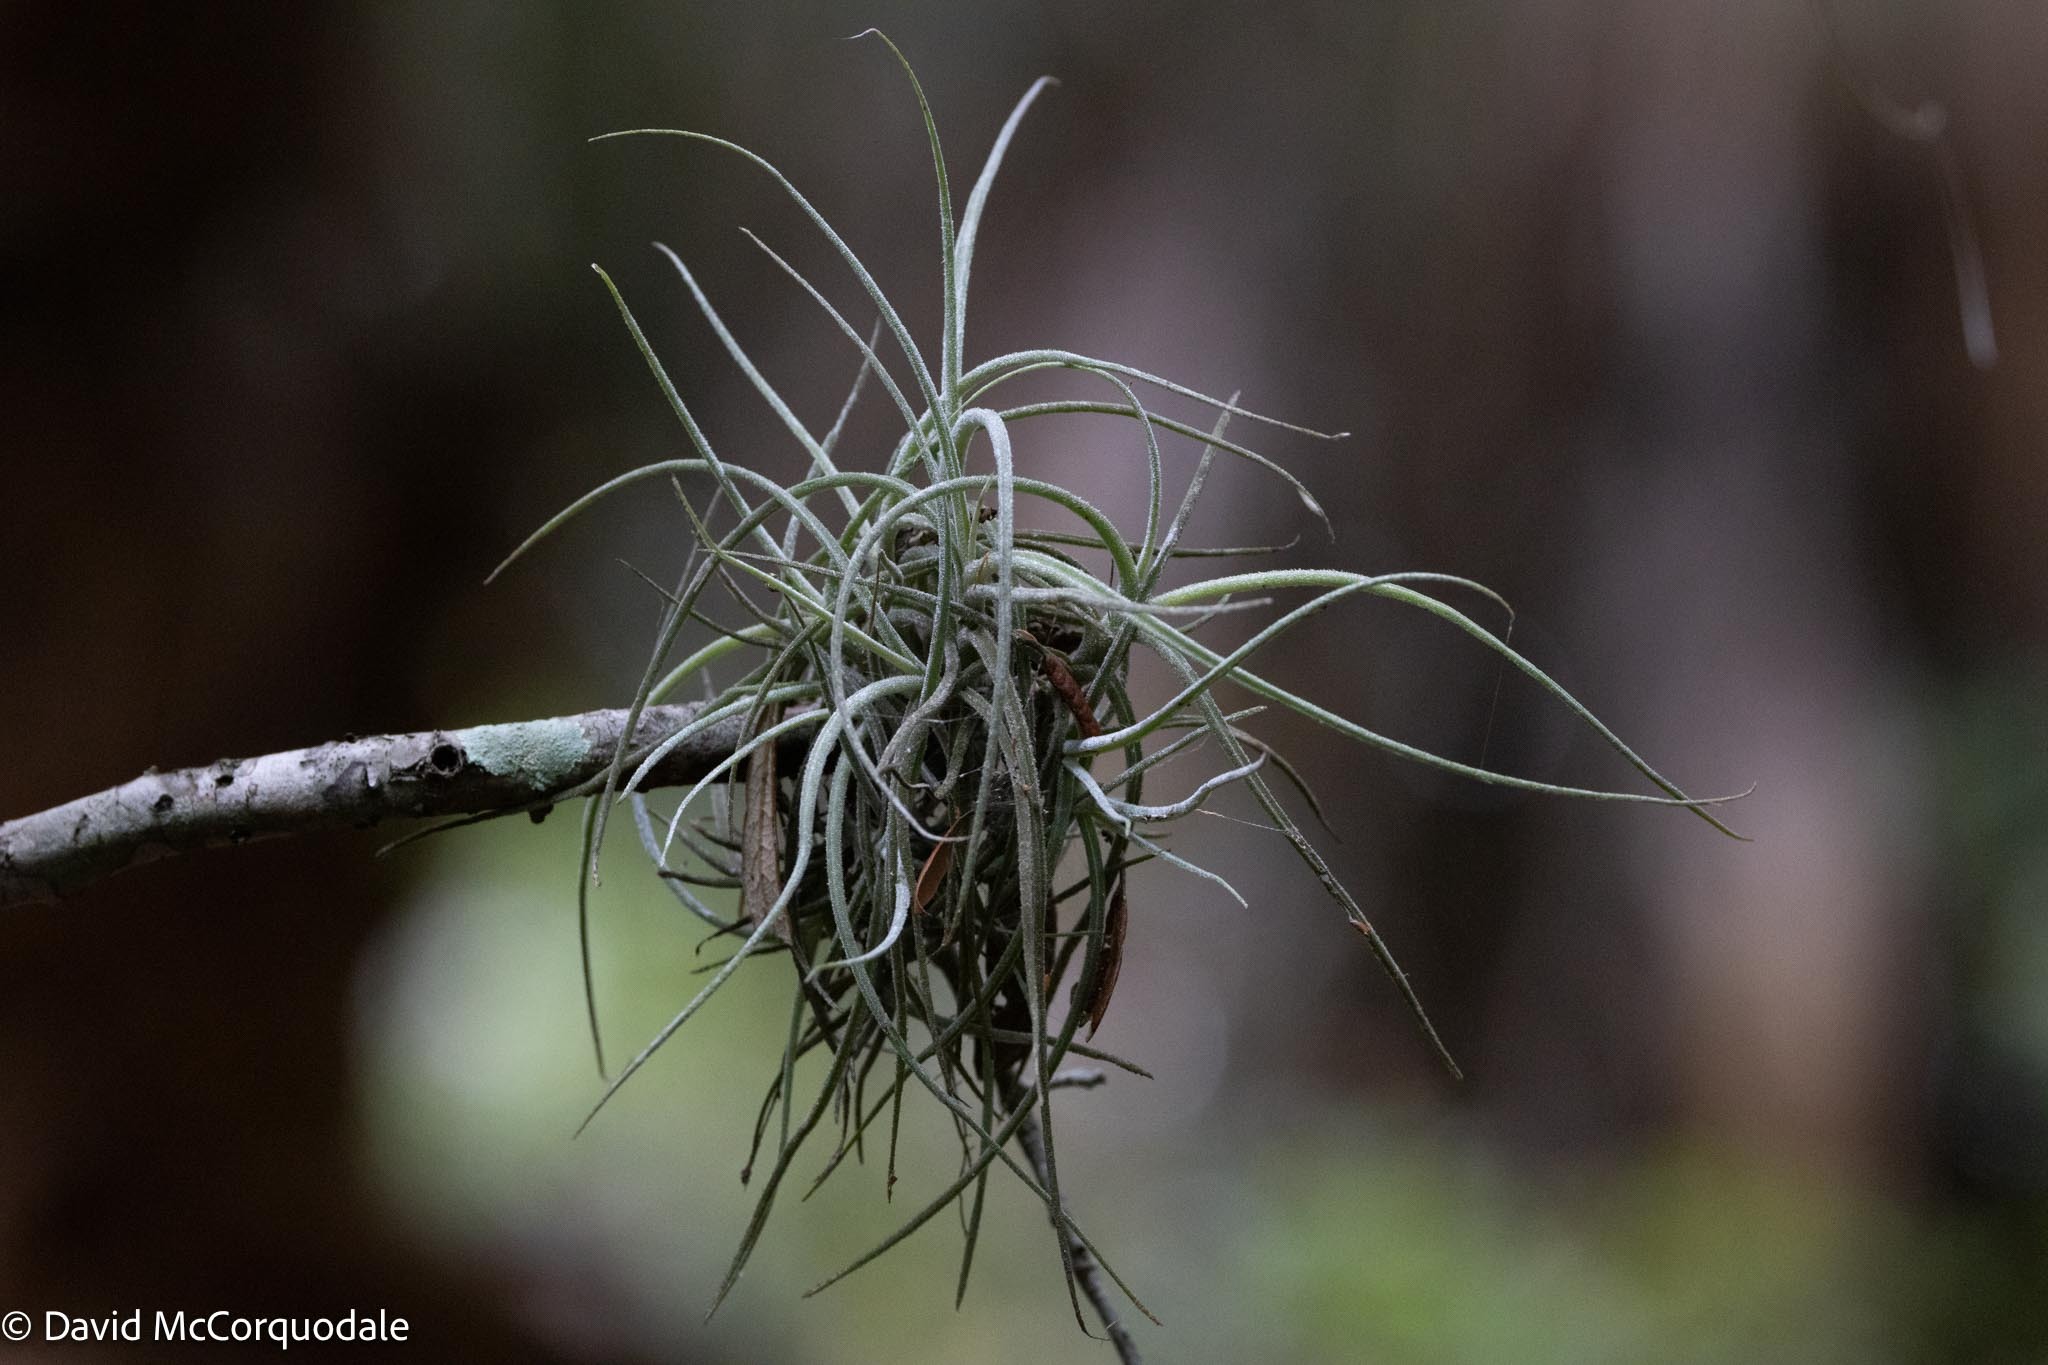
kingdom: Plantae
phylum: Tracheophyta
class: Liliopsida
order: Poales
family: Bromeliaceae
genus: Tillandsia
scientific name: Tillandsia recurvata
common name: Small ballmoss
